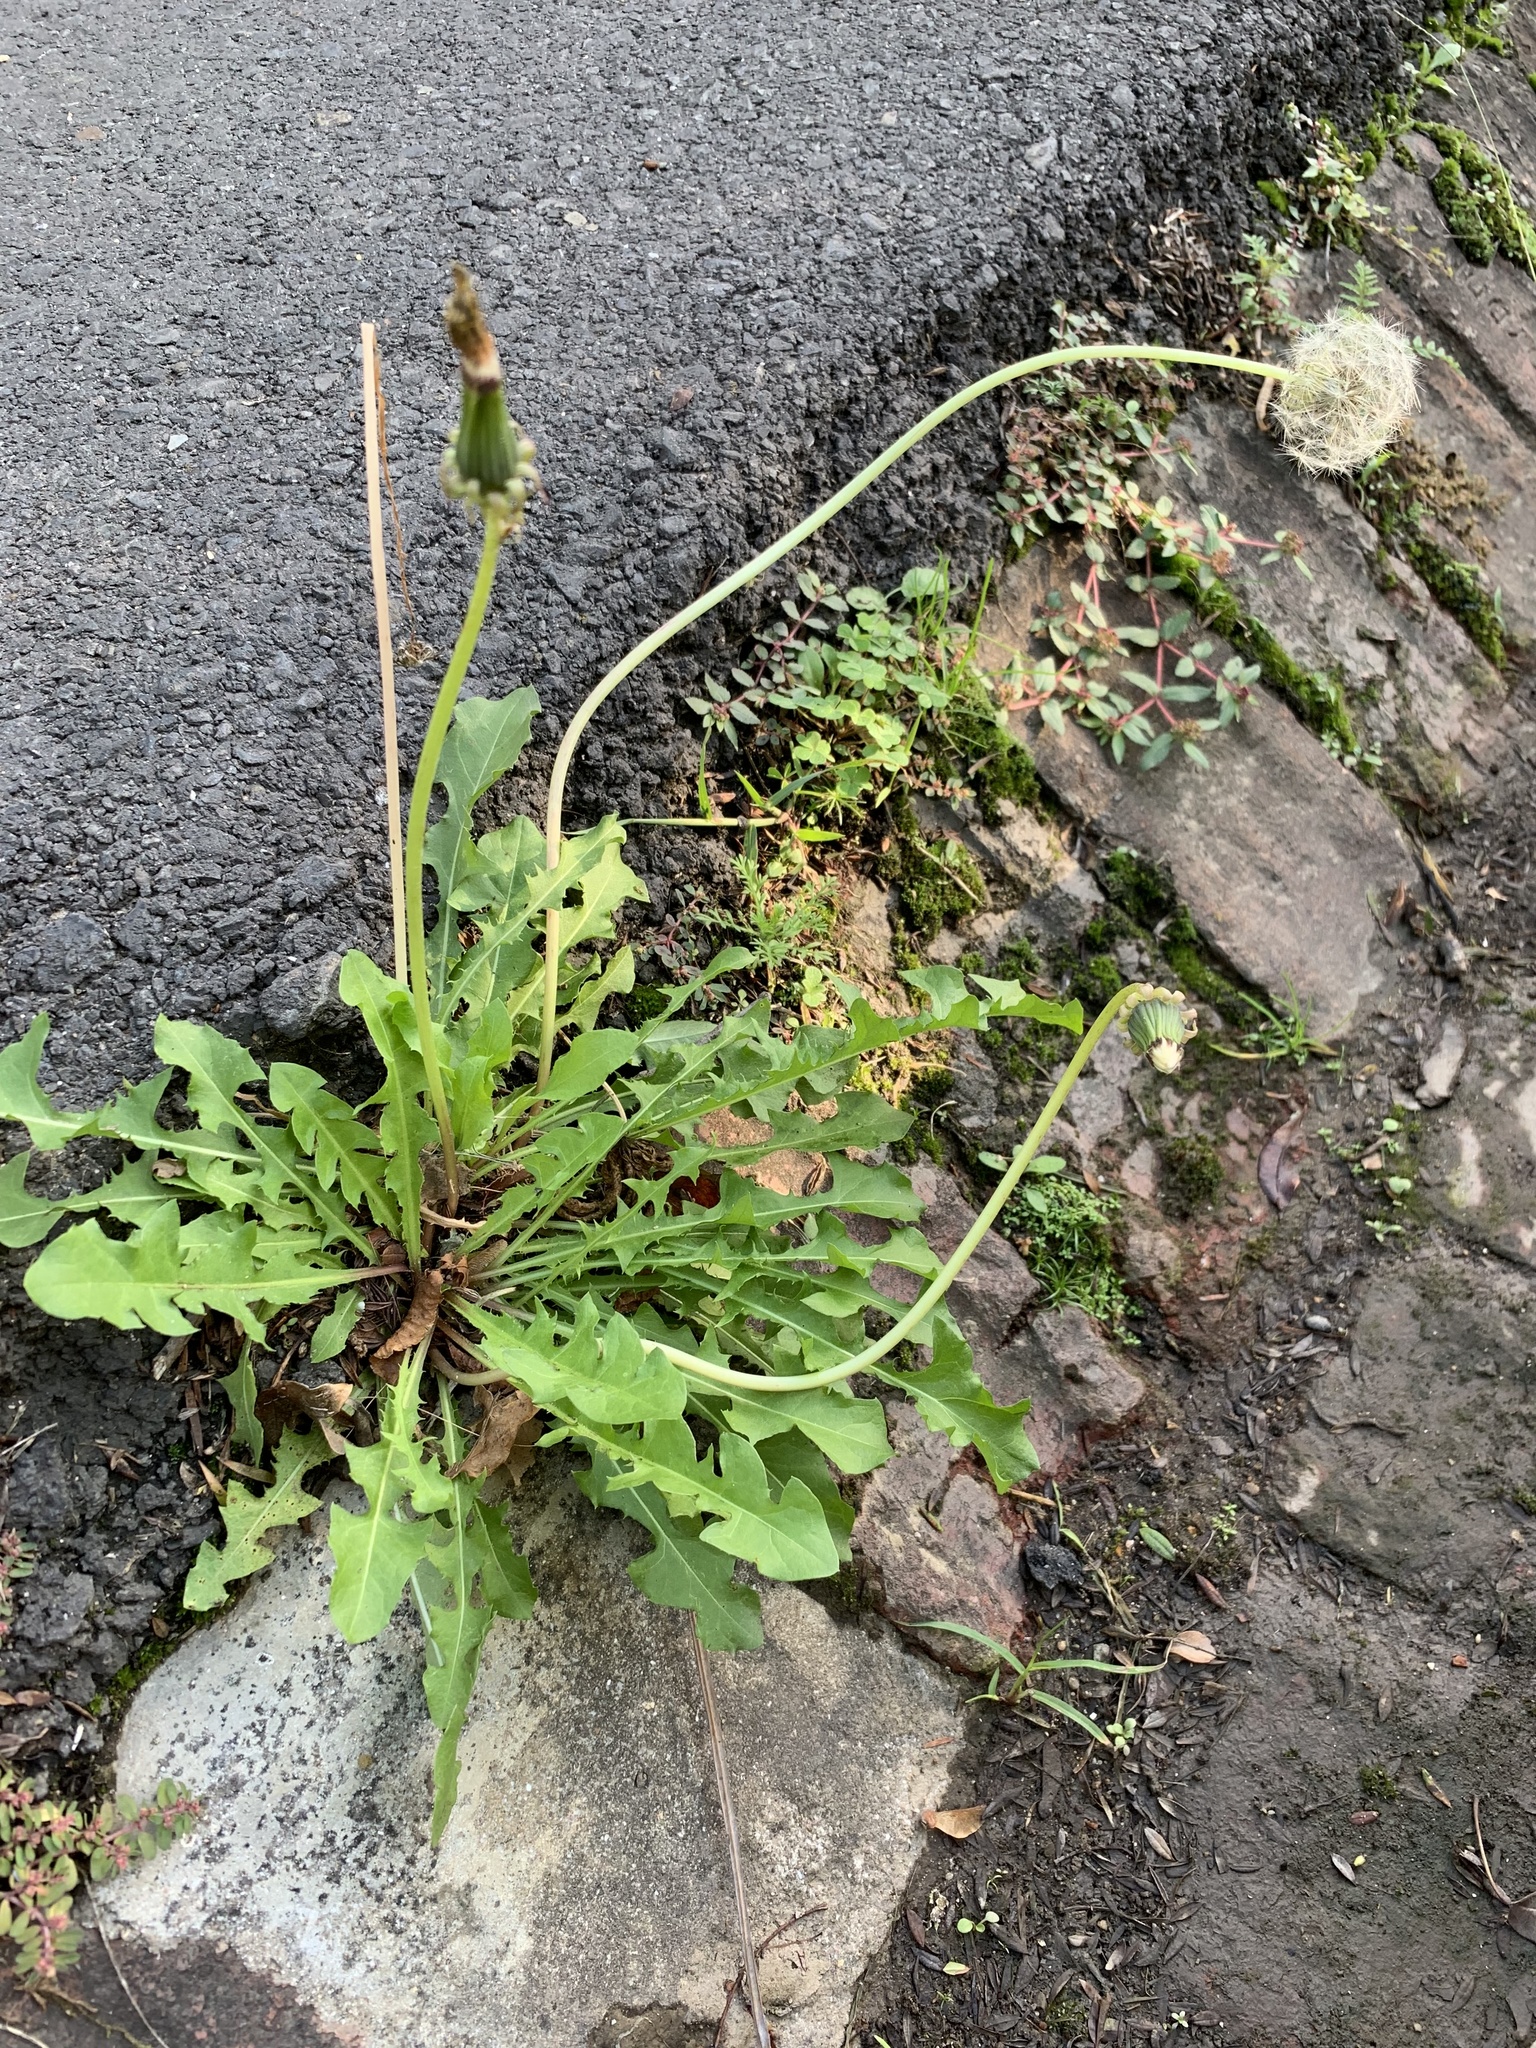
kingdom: Plantae
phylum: Tracheophyta
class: Magnoliopsida
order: Asterales
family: Asteraceae
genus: Taraxacum
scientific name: Taraxacum officinale
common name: Common dandelion
